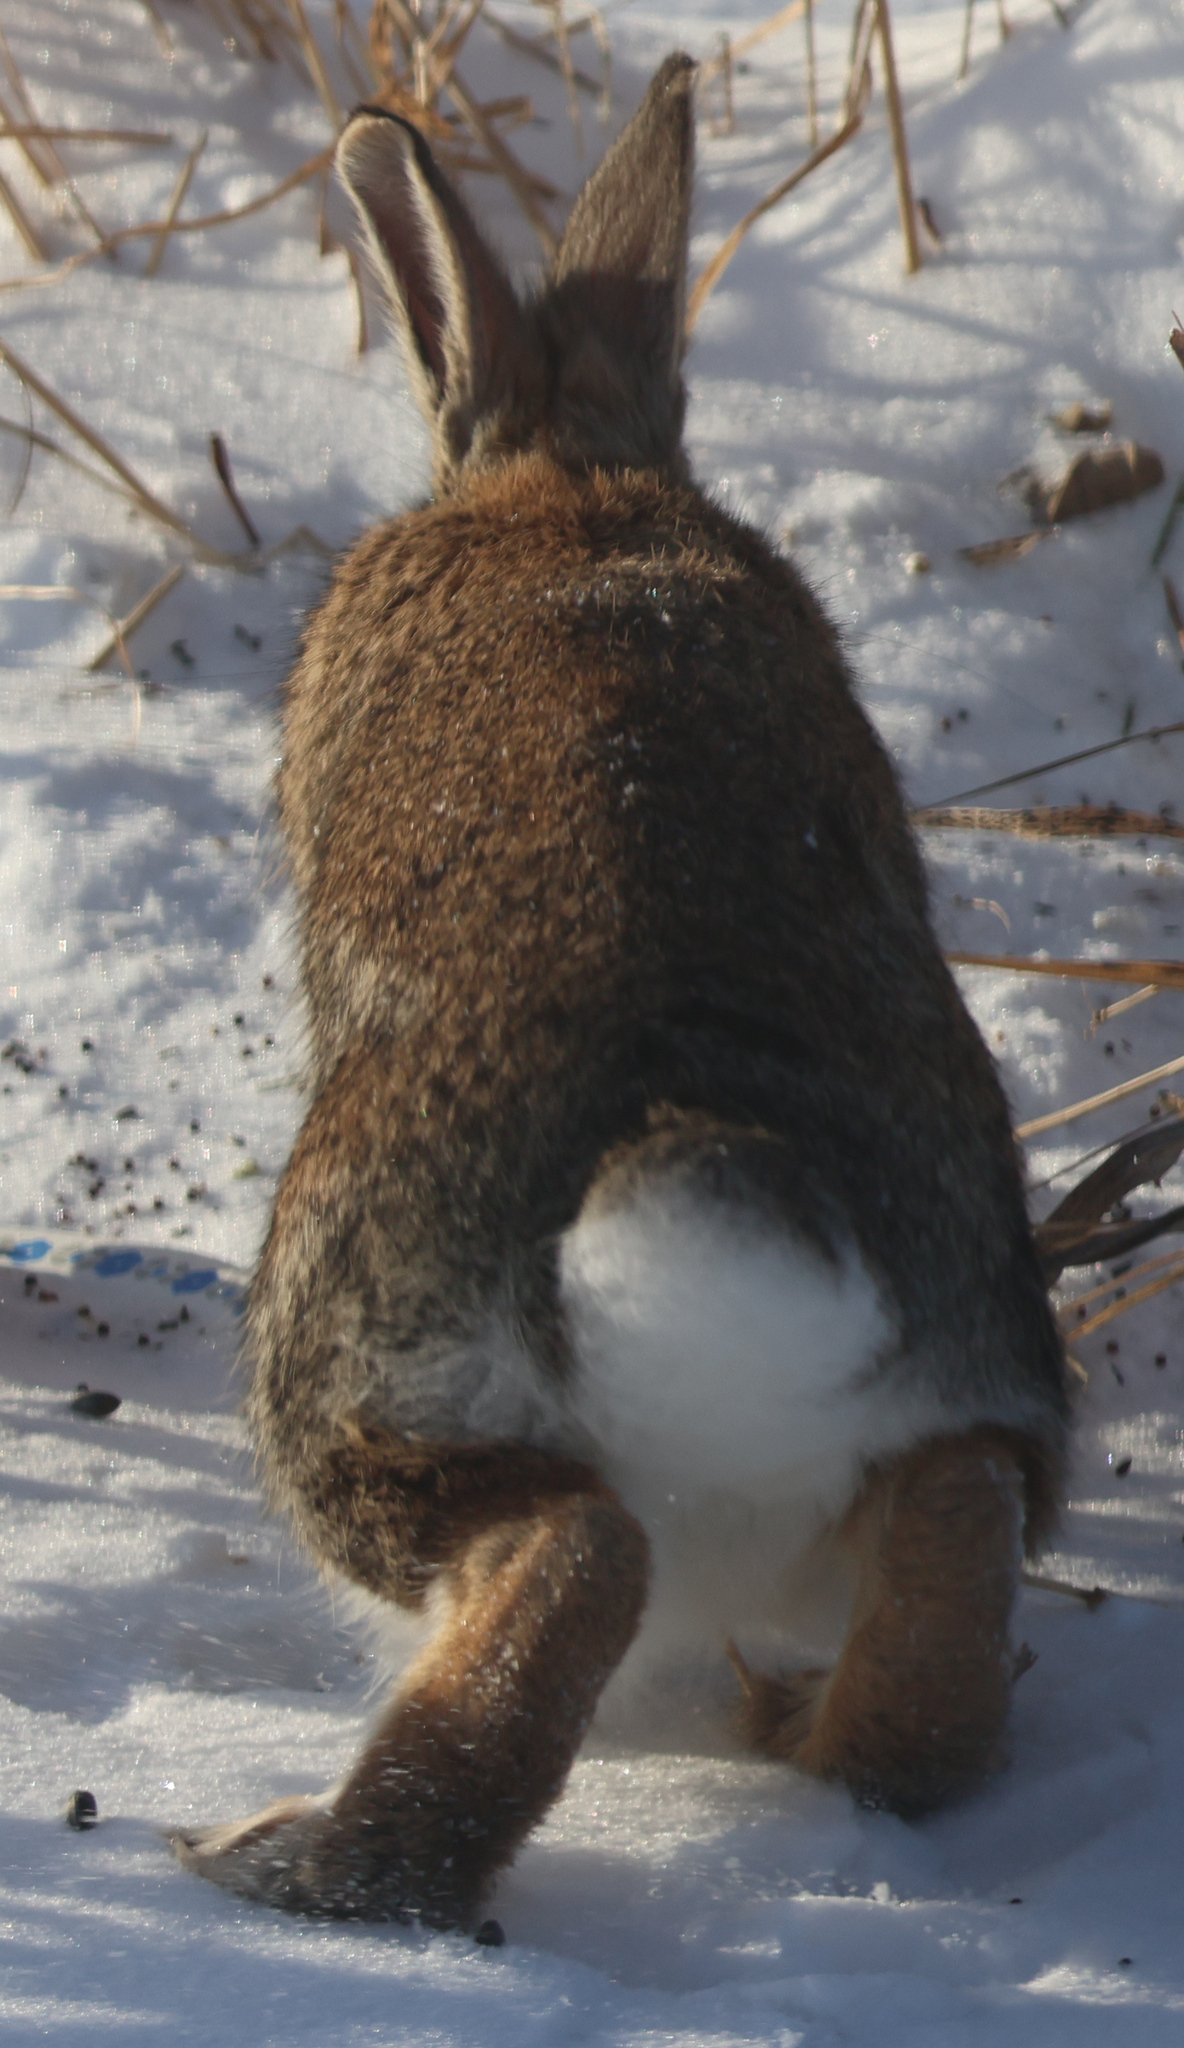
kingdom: Animalia
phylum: Chordata
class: Mammalia
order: Lagomorpha
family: Leporidae
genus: Sylvilagus
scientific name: Sylvilagus floridanus
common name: Eastern cottontail
